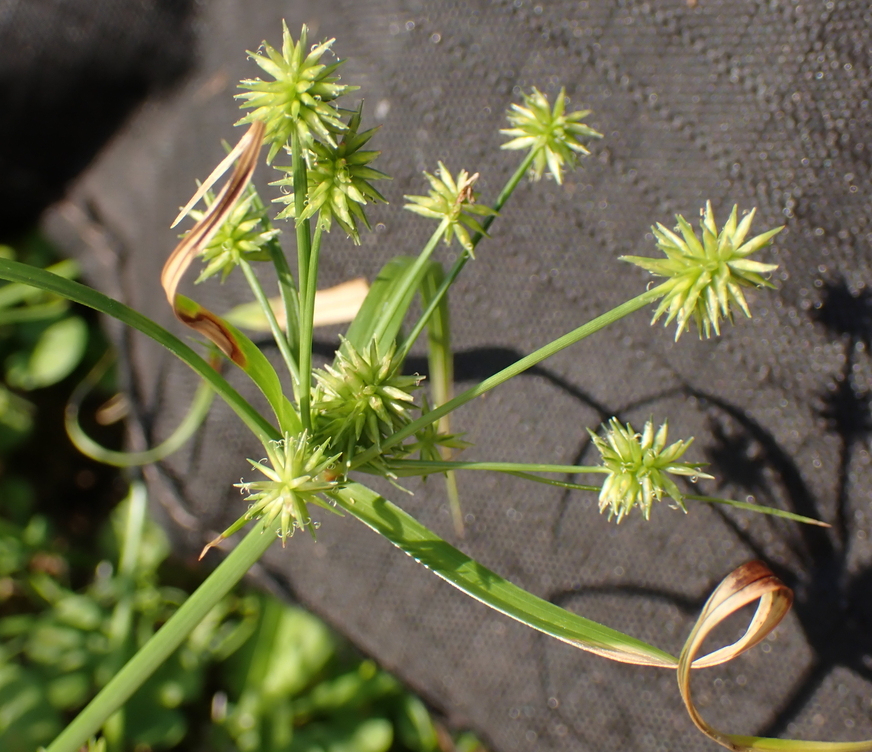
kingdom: Plantae
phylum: Tracheophyta
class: Liliopsida
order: Poales
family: Cyperaceae
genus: Cyperus
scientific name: Cyperus croceus
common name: Baldwin's flatsedge
